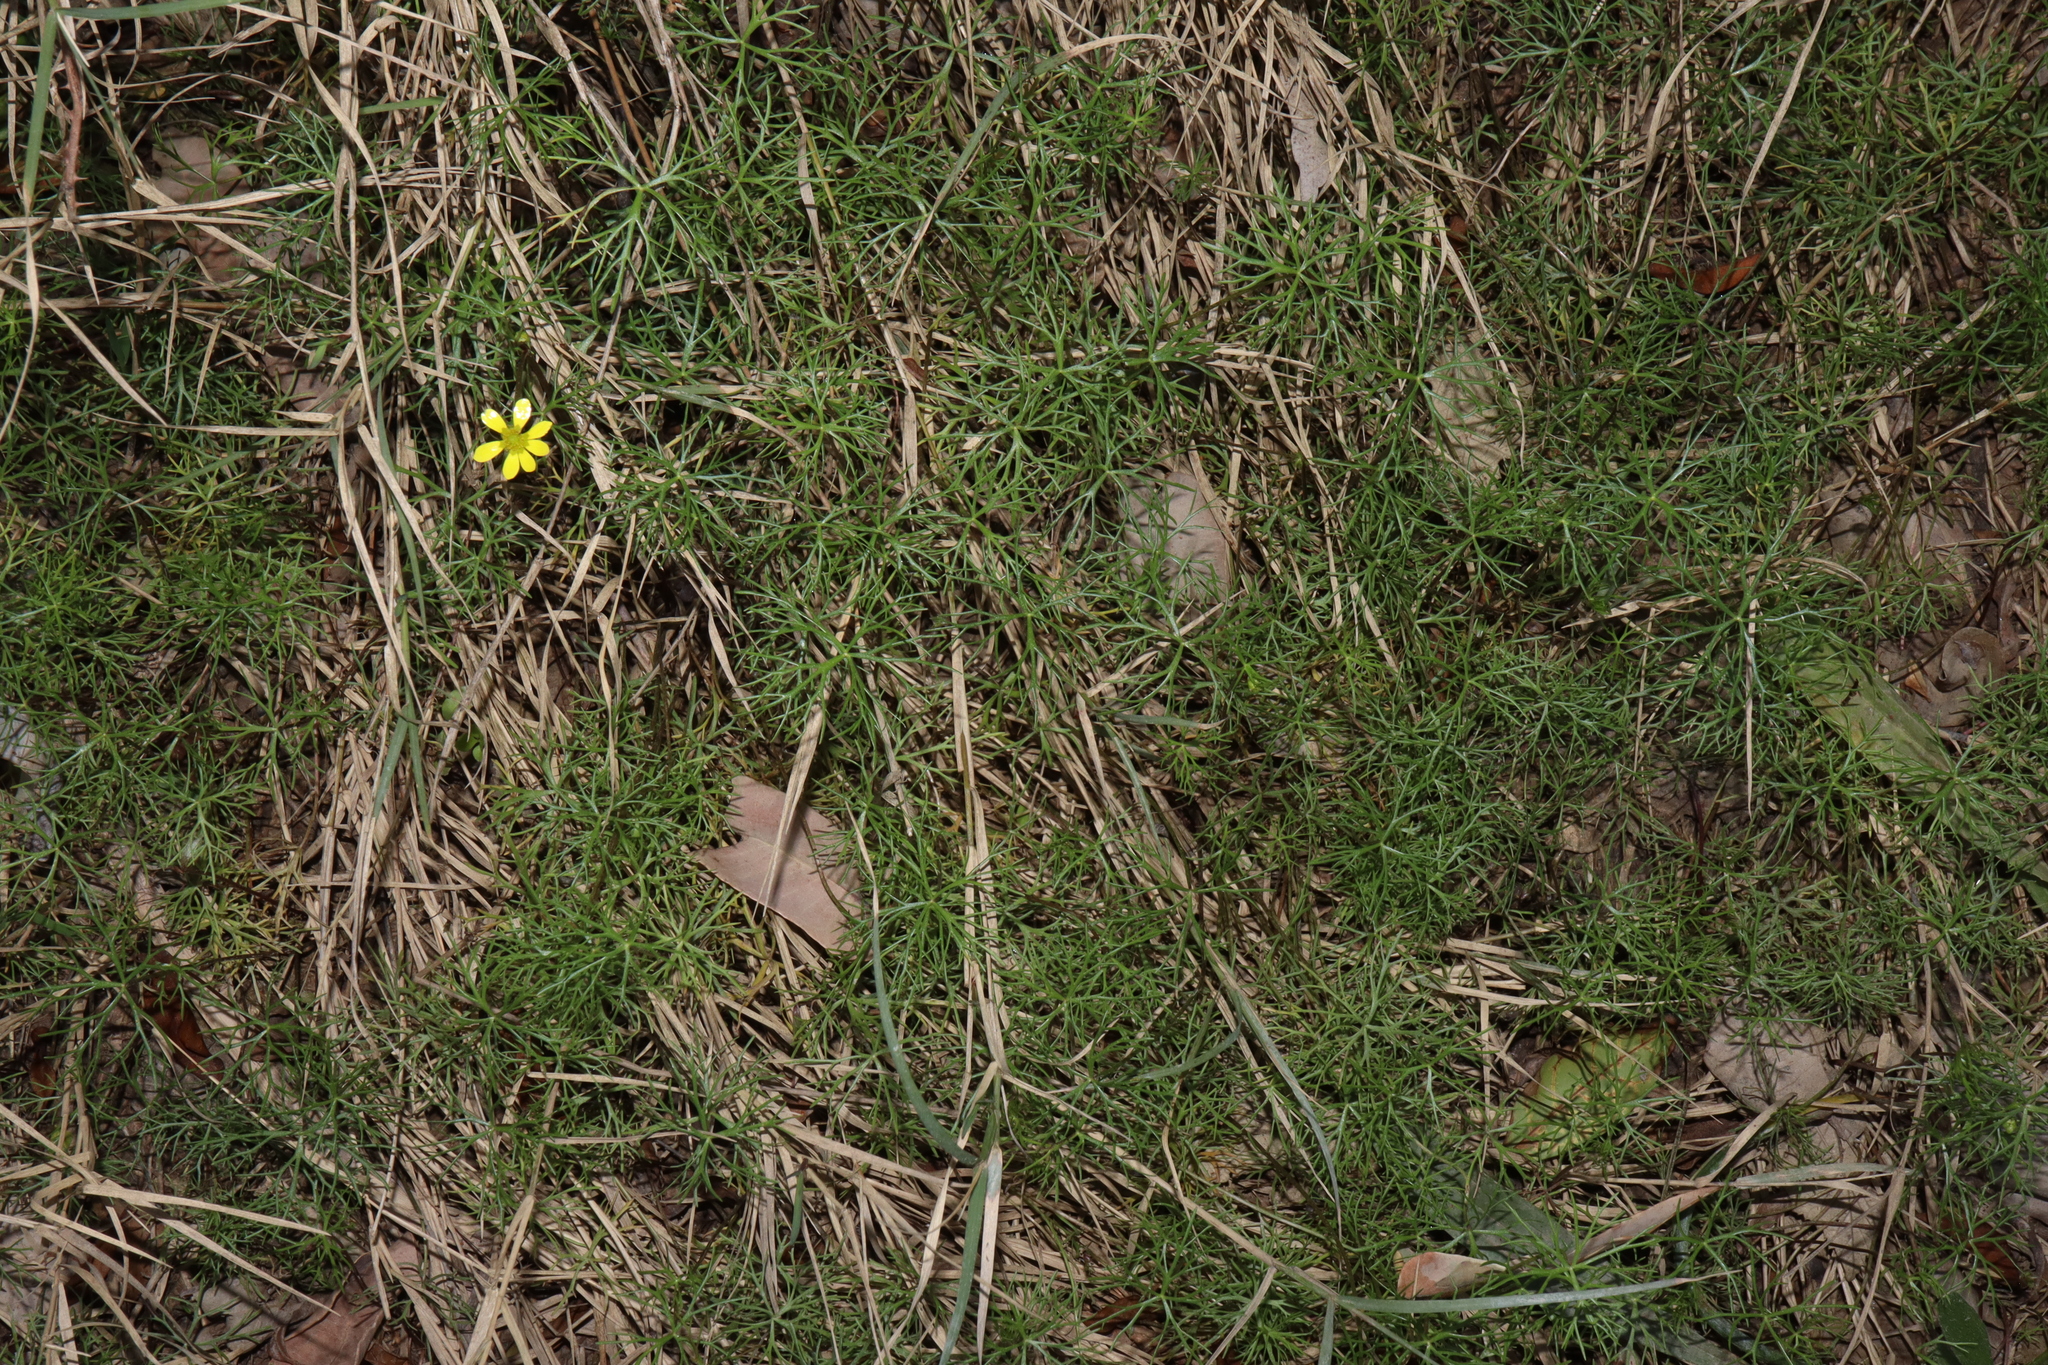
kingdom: Plantae
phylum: Tracheophyta
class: Magnoliopsida
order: Ranunculales
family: Ranunculaceae
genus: Ranunculus
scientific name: Ranunculus inundatus
